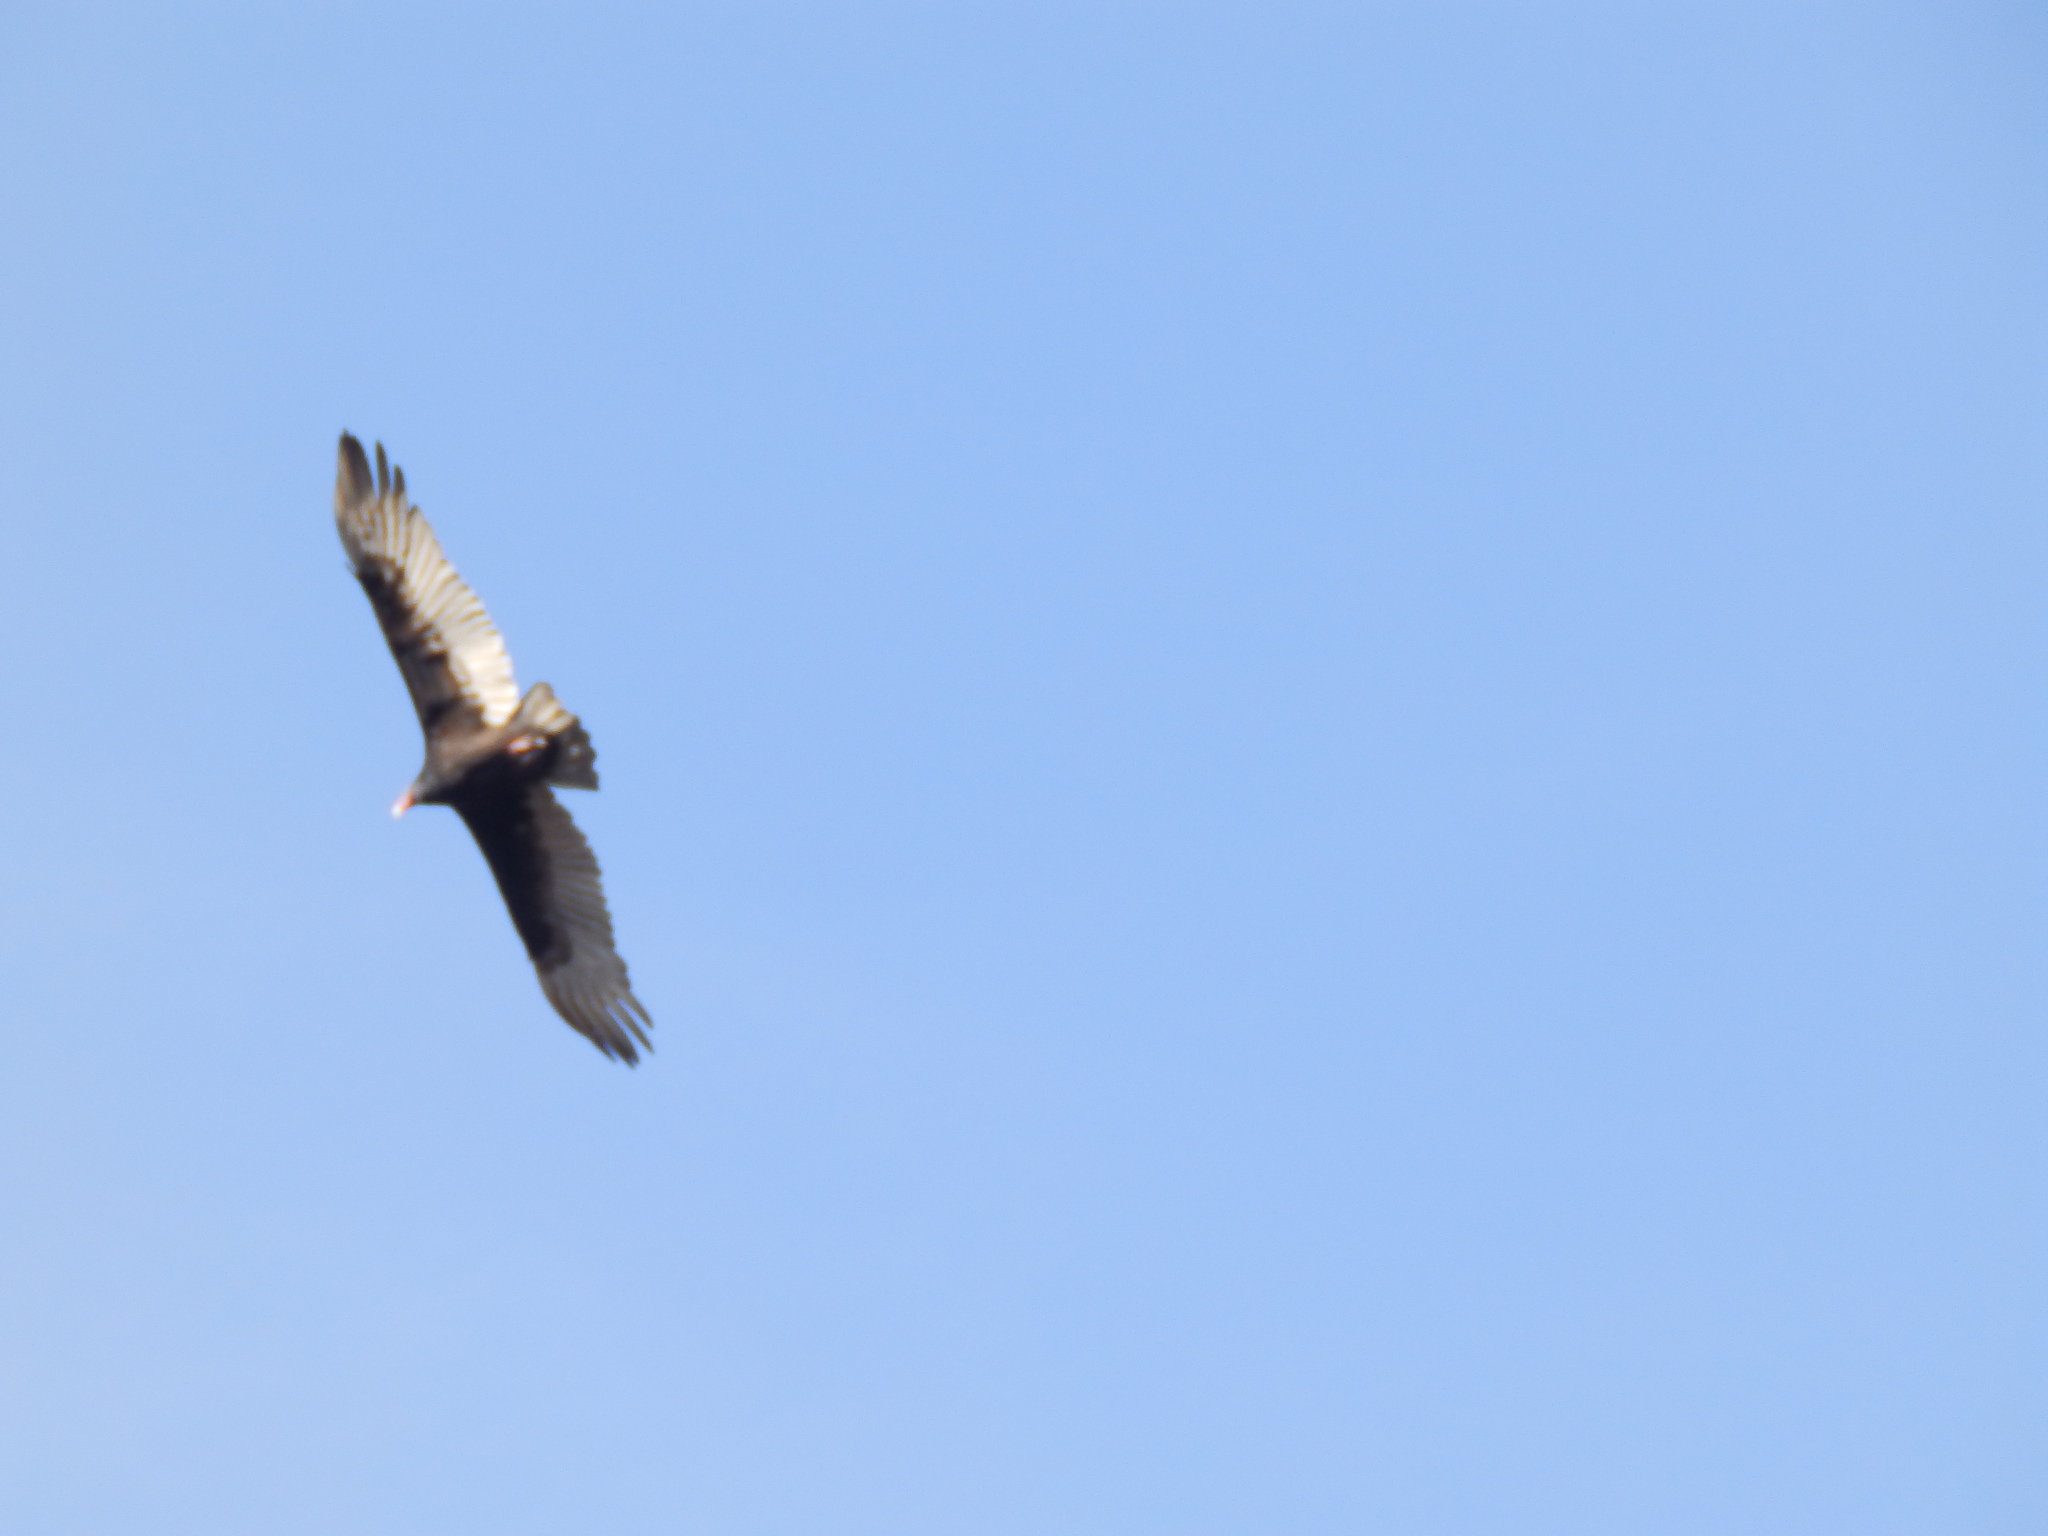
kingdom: Animalia
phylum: Chordata
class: Aves
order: Accipitriformes
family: Cathartidae
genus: Cathartes
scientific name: Cathartes aura
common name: Turkey vulture
